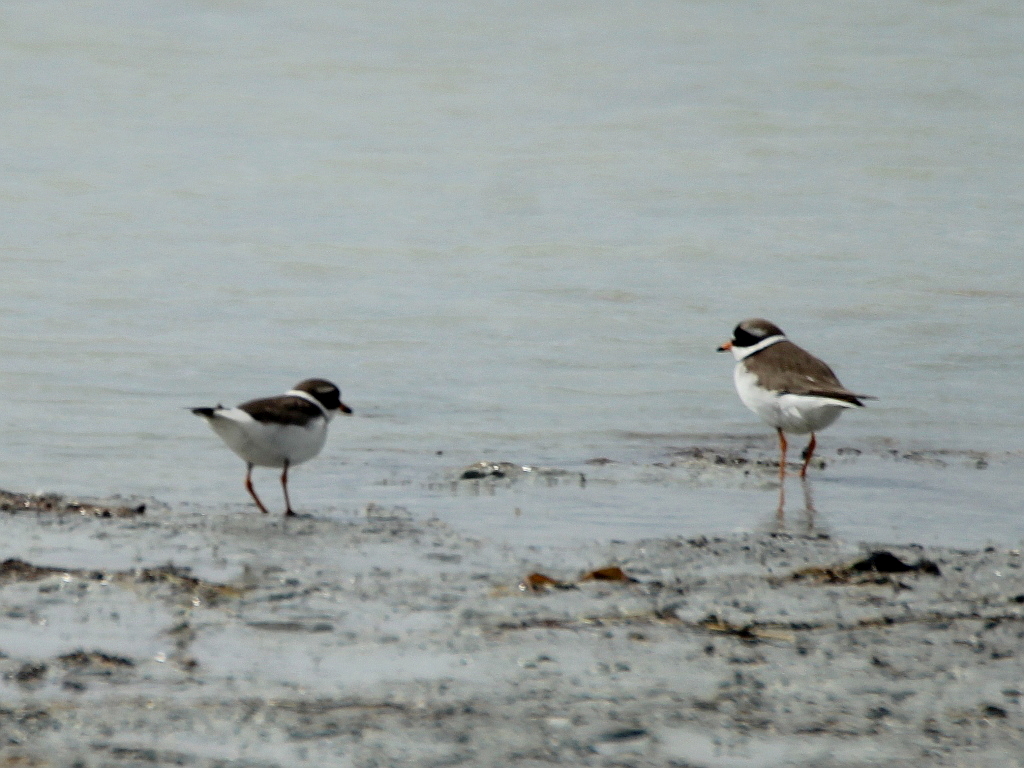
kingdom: Animalia
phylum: Chordata
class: Aves
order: Charadriiformes
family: Charadriidae
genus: Charadrius
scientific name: Charadrius hiaticula
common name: Common ringed plover
